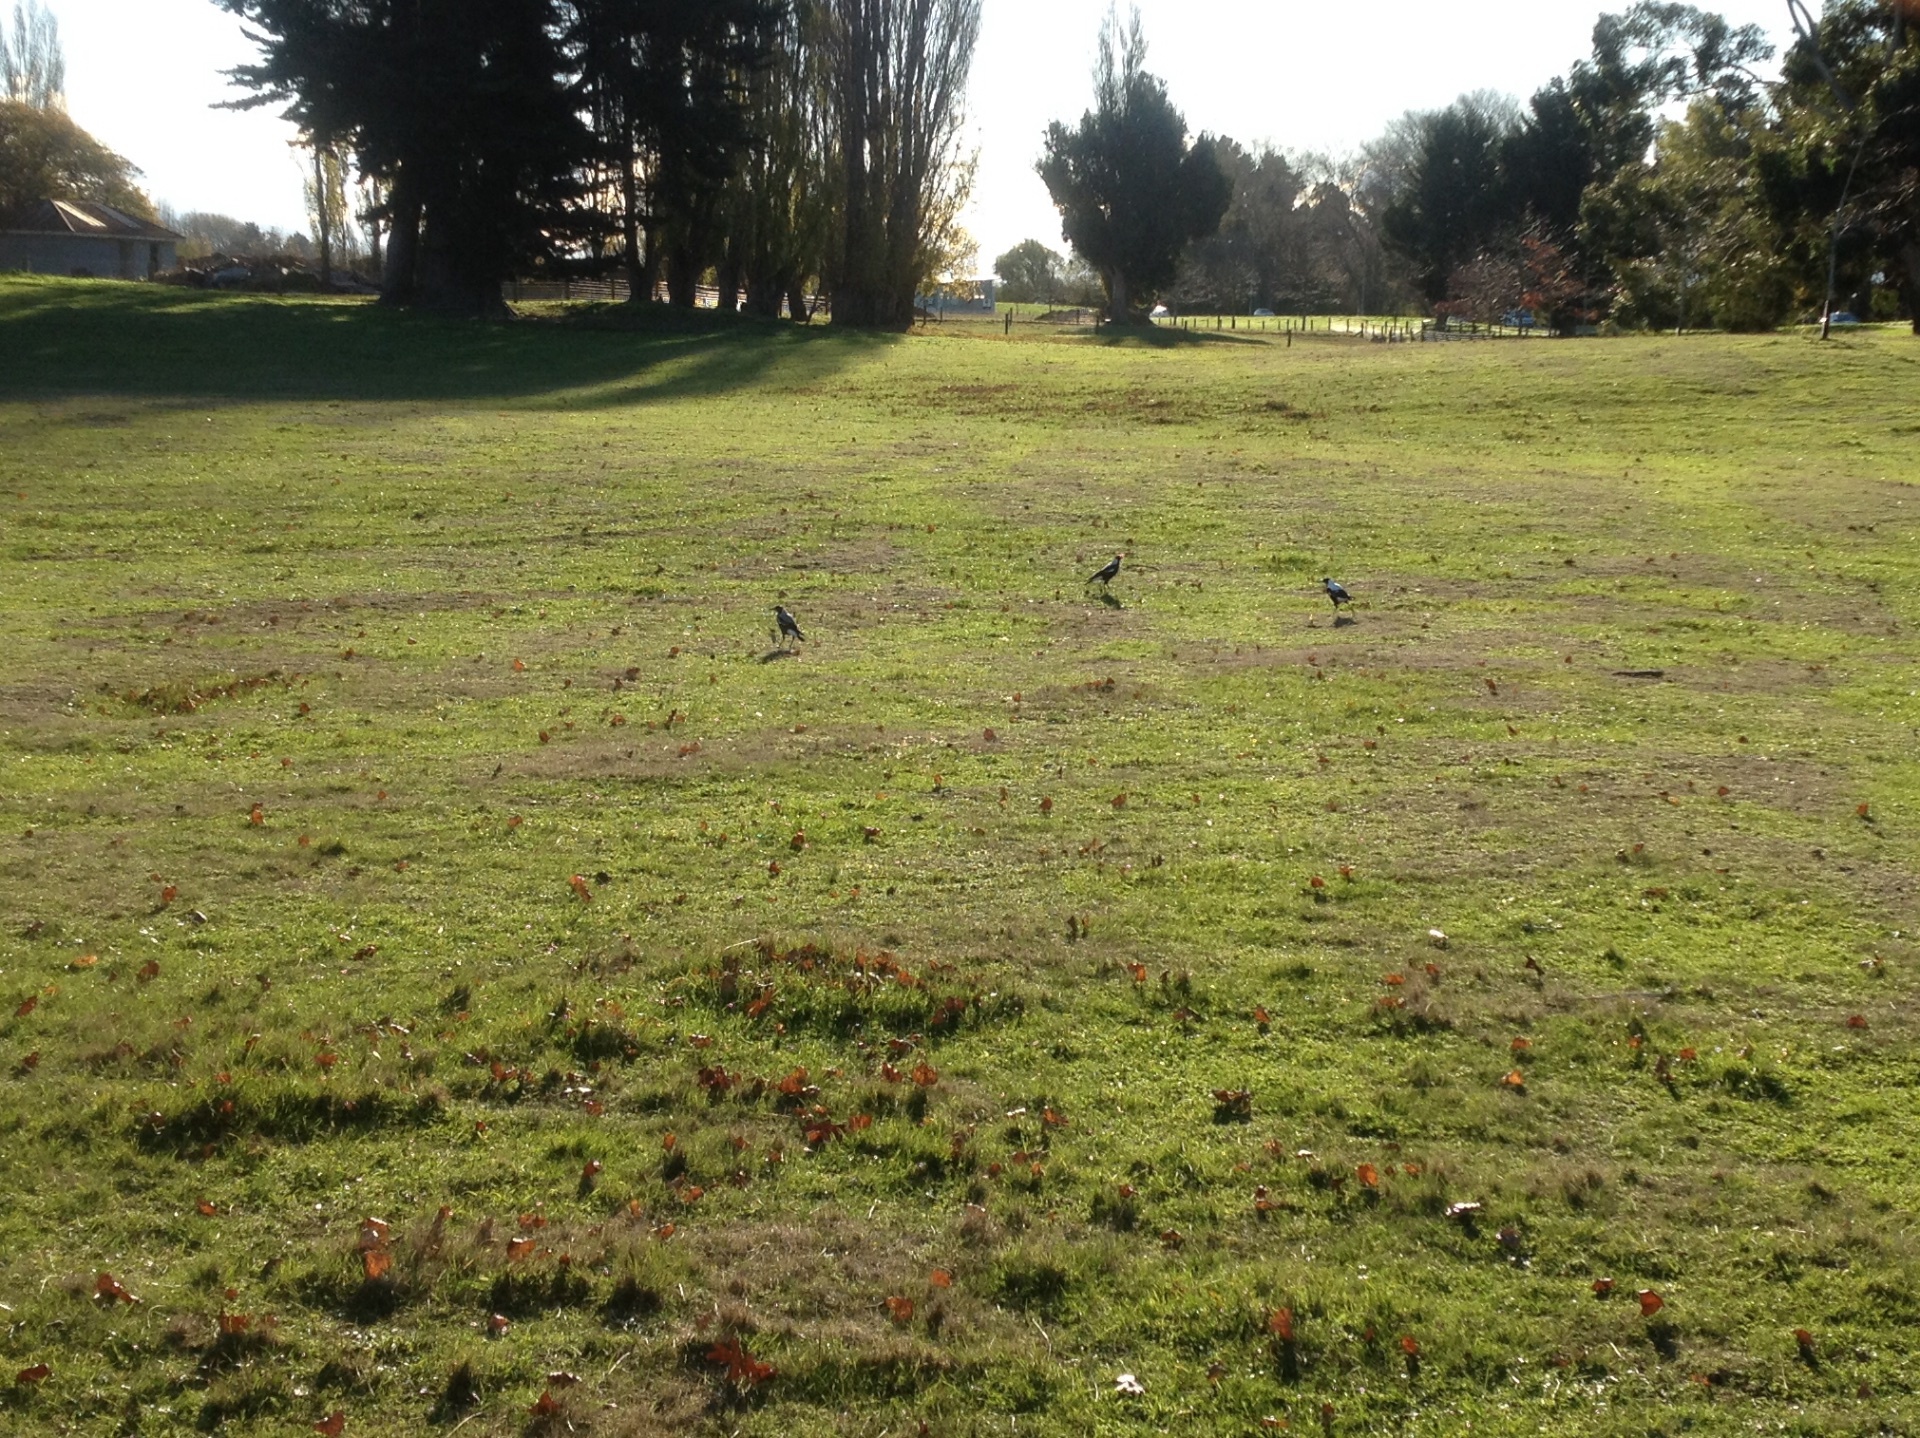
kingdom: Animalia
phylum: Chordata
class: Aves
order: Passeriformes
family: Cracticidae
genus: Gymnorhina
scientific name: Gymnorhina tibicen
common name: Australian magpie
